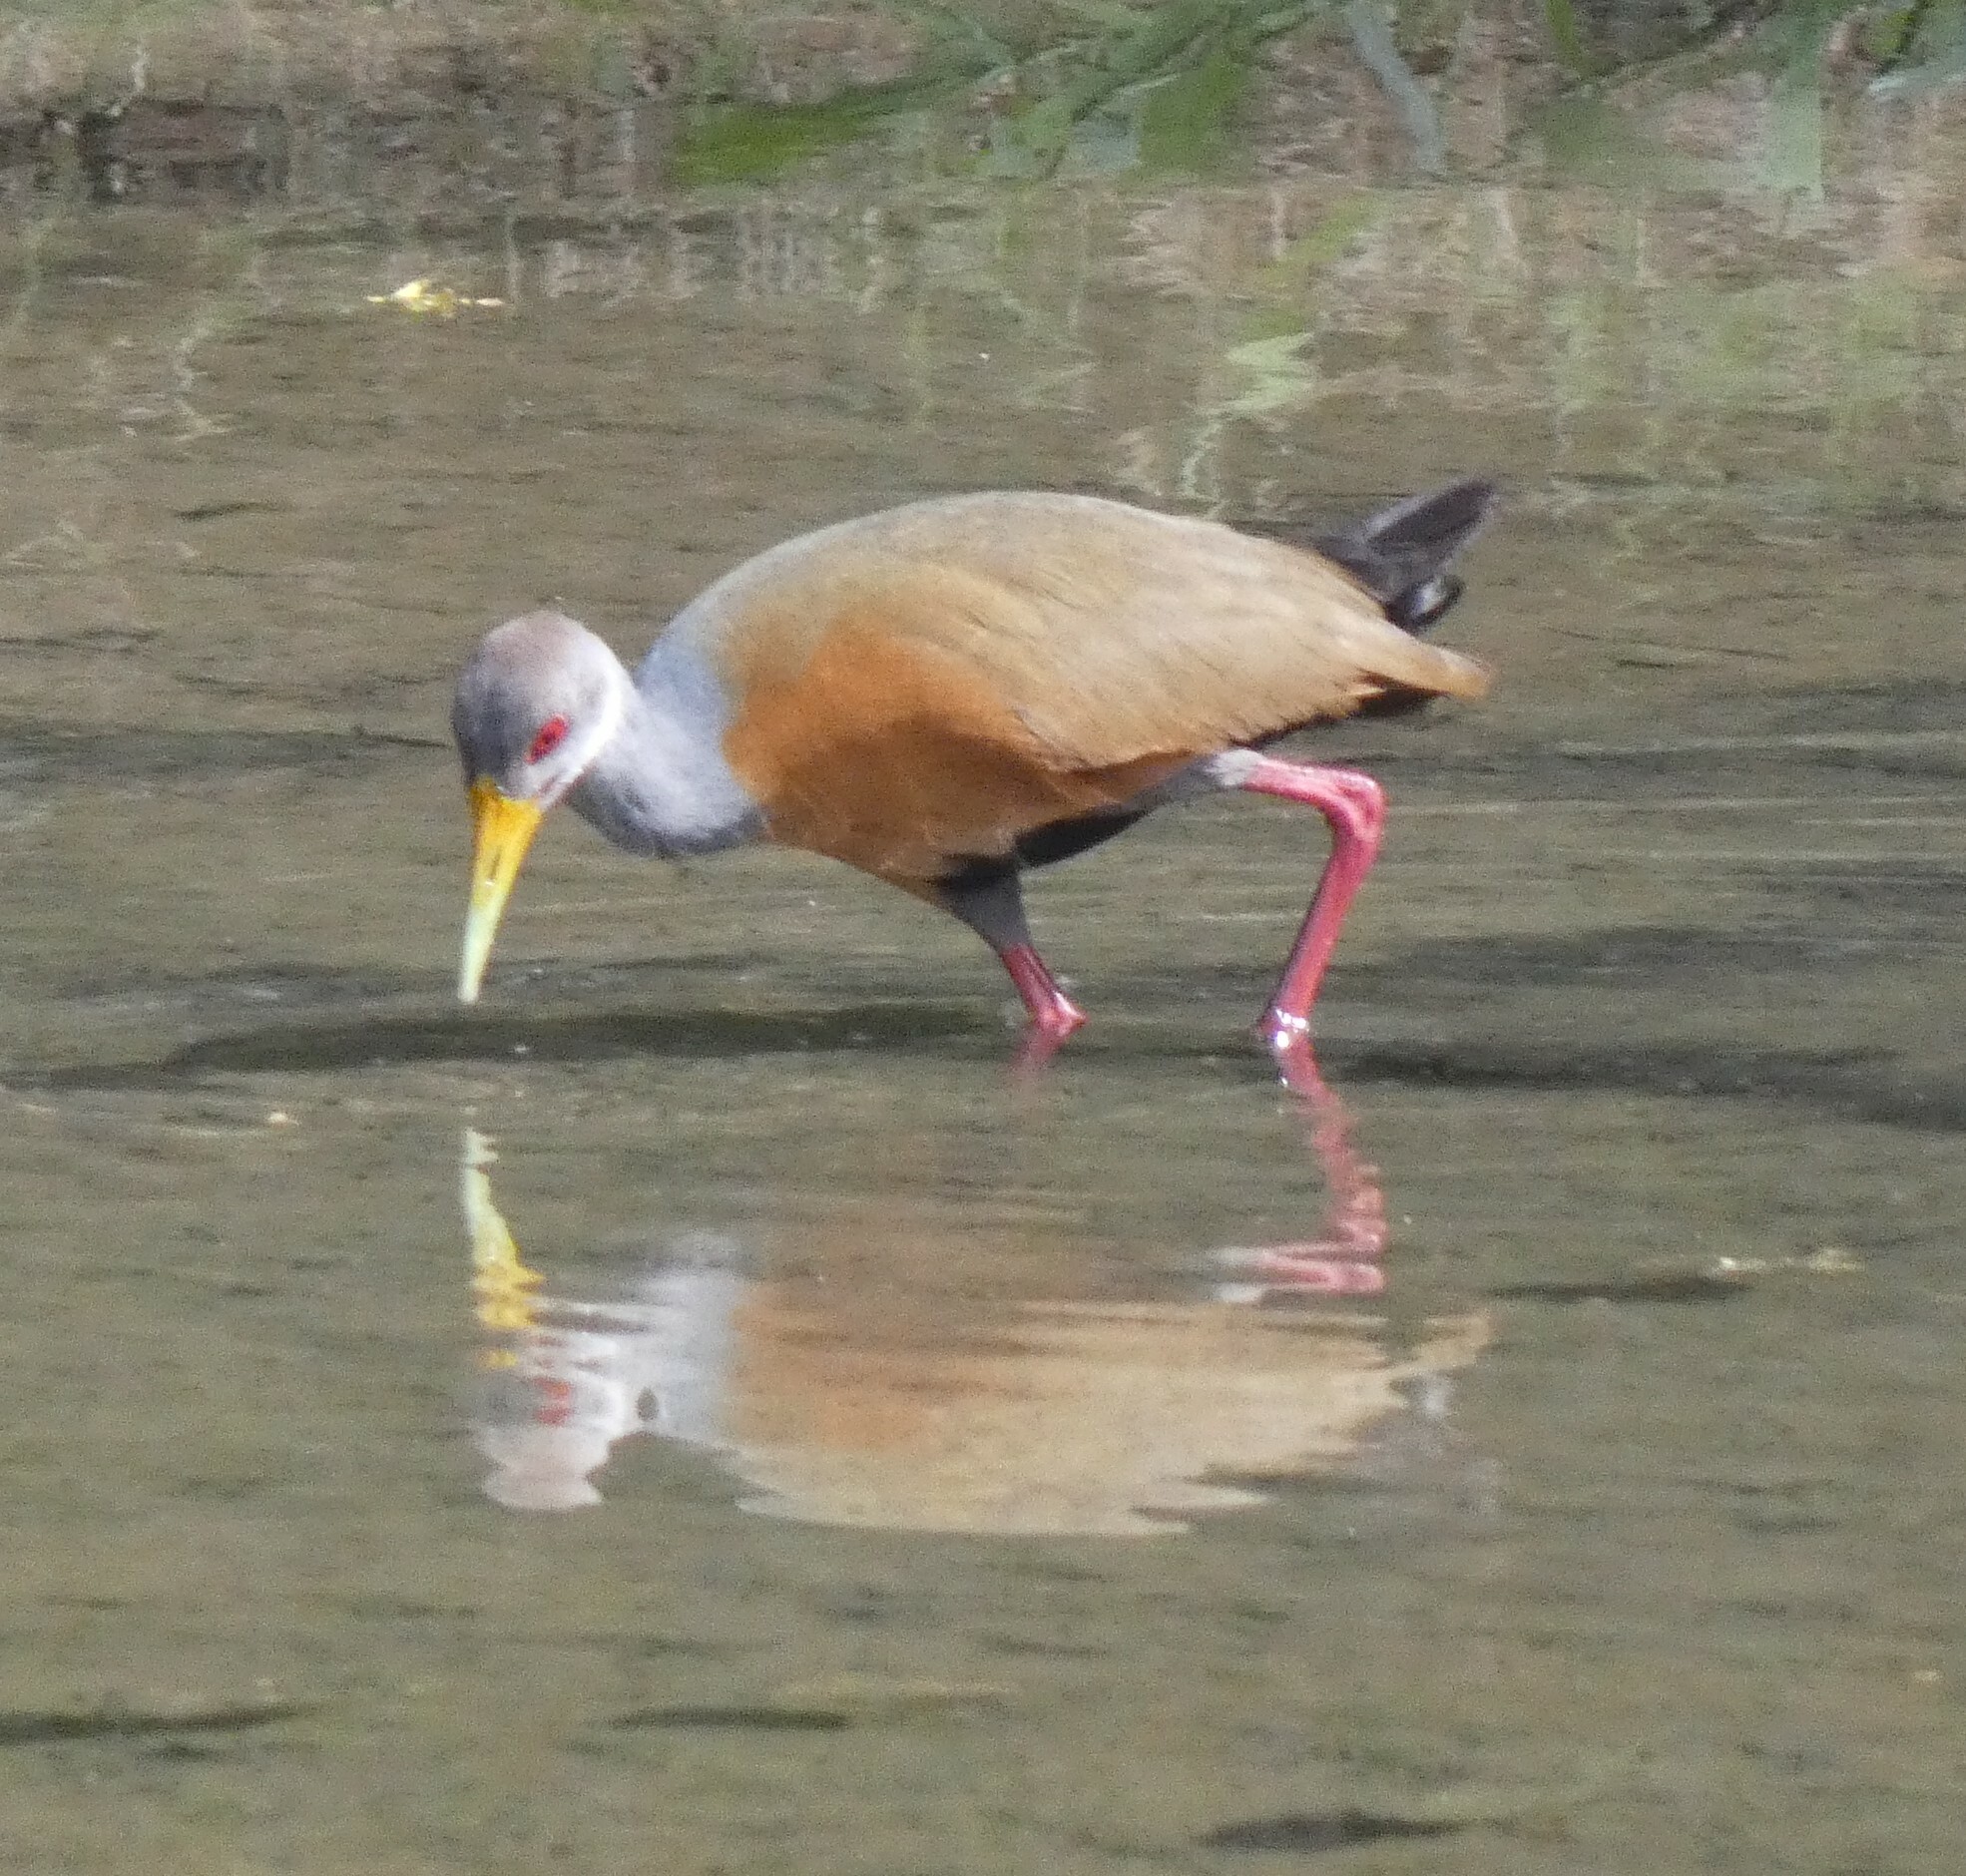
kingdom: Animalia
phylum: Chordata
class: Aves
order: Gruiformes
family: Rallidae
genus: Aramides
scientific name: Aramides cajanea
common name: Gray-necked wood-rail
